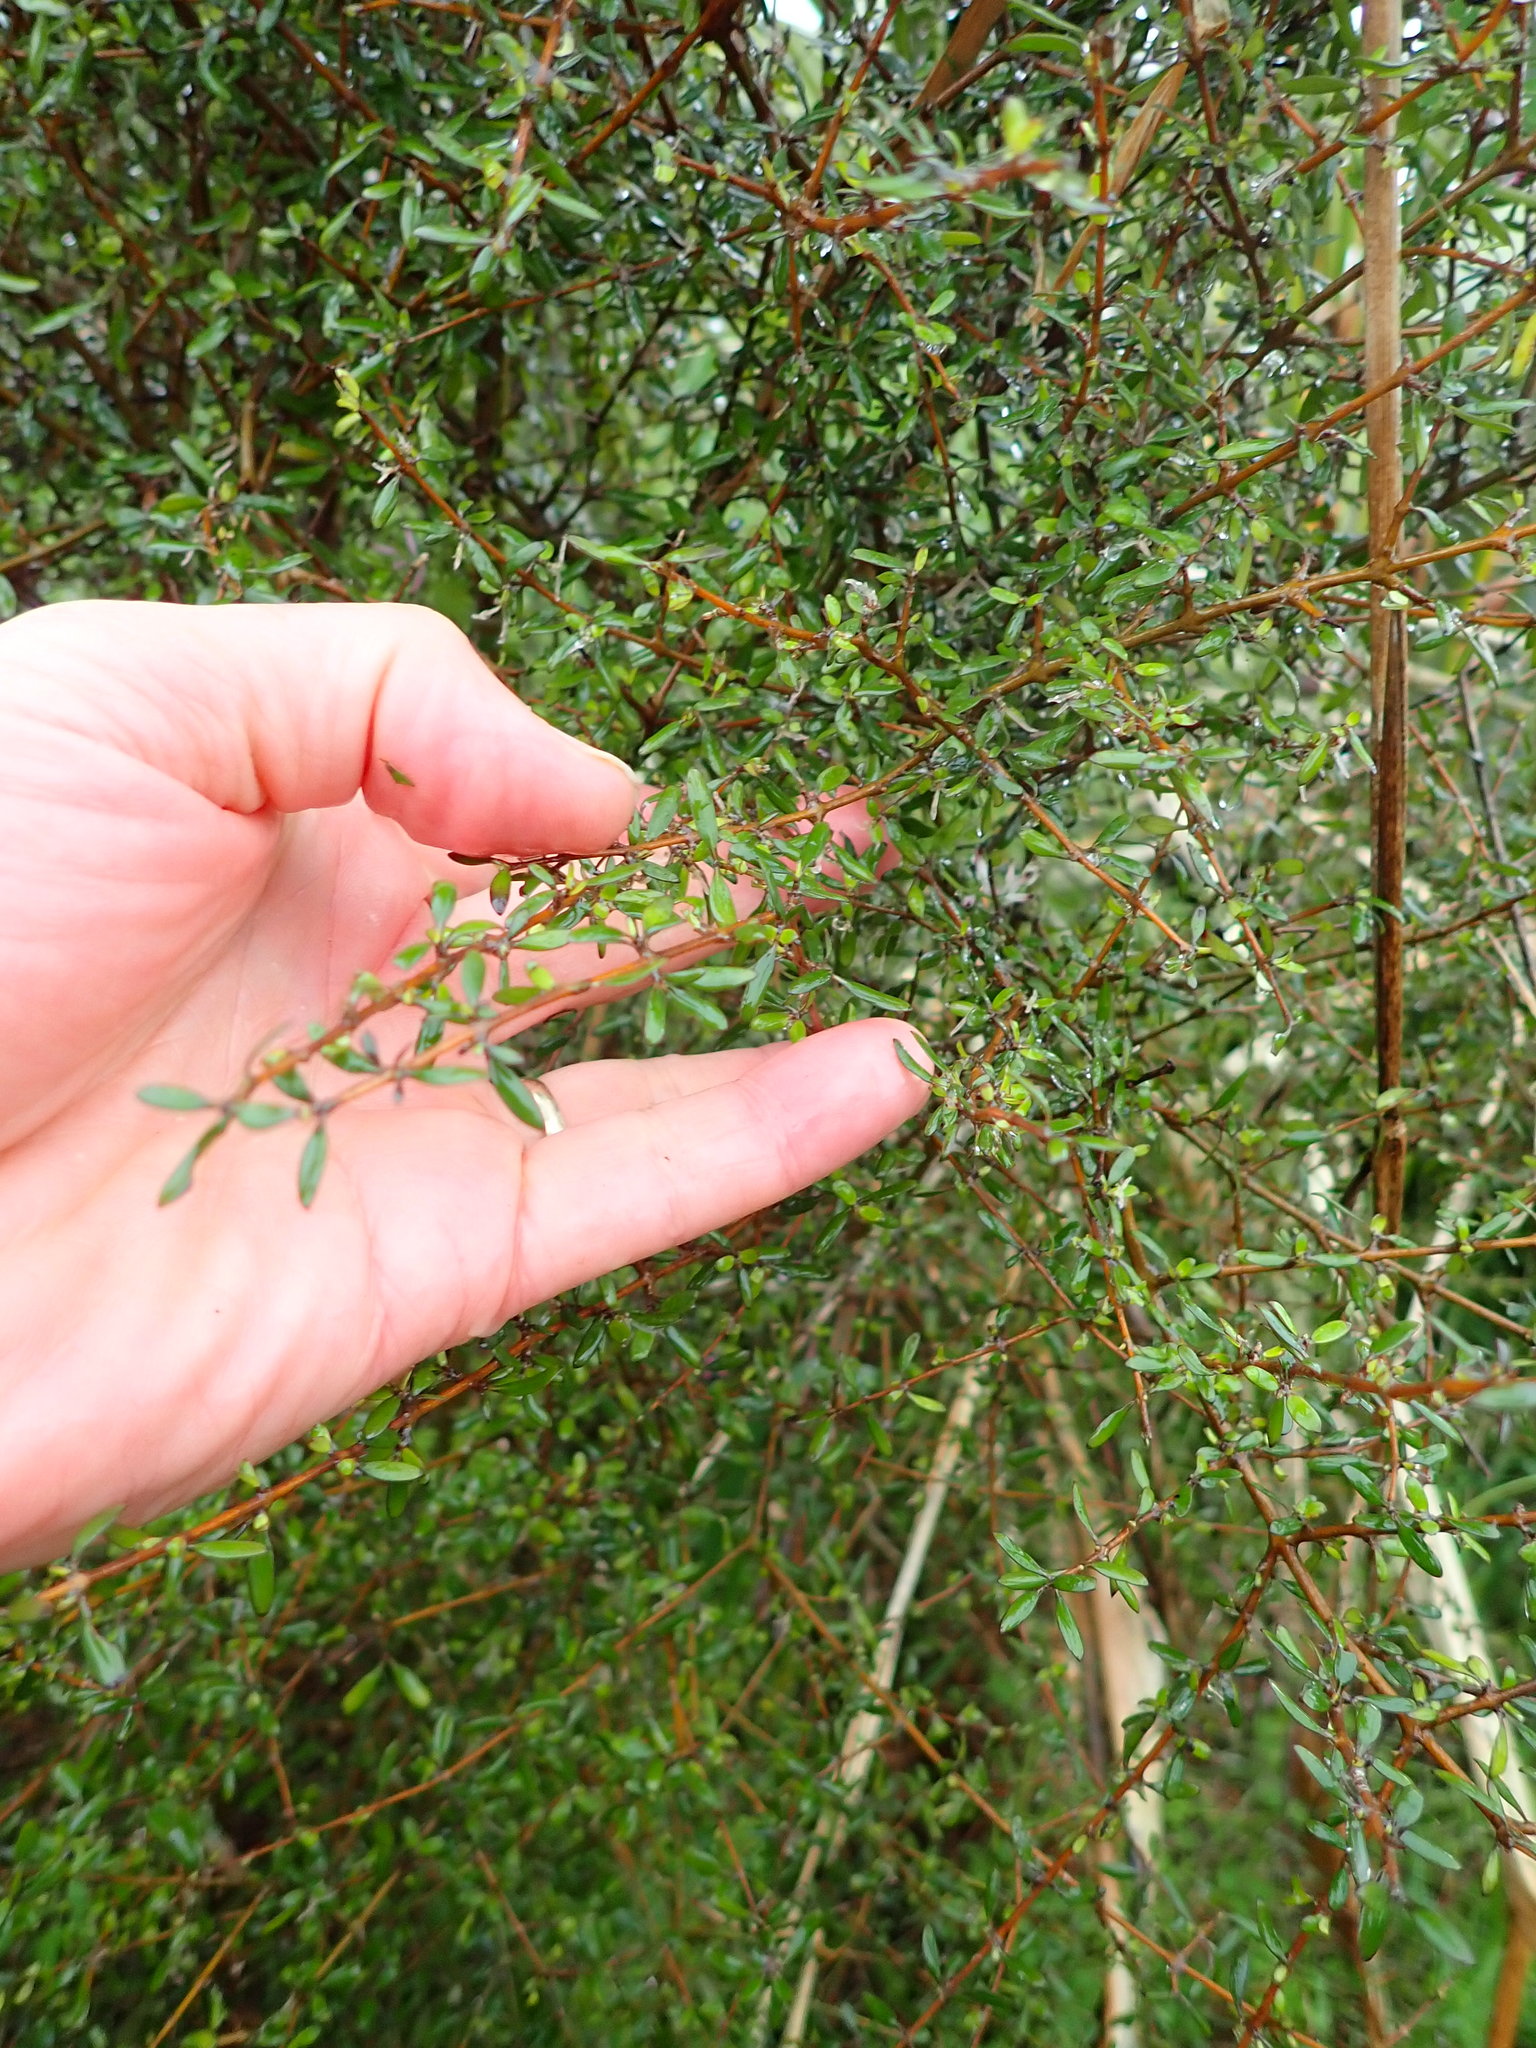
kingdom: Plantae
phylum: Tracheophyta
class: Magnoliopsida
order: Gentianales
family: Rubiaceae
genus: Coprosma
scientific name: Coprosma propinqua
